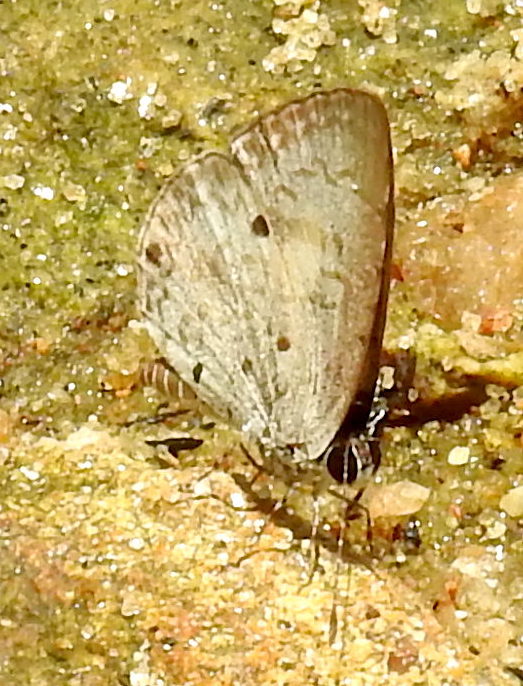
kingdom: Animalia
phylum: Arthropoda
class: Insecta
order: Lepidoptera
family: Lycaenidae
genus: Megisba
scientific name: Megisba malaya
